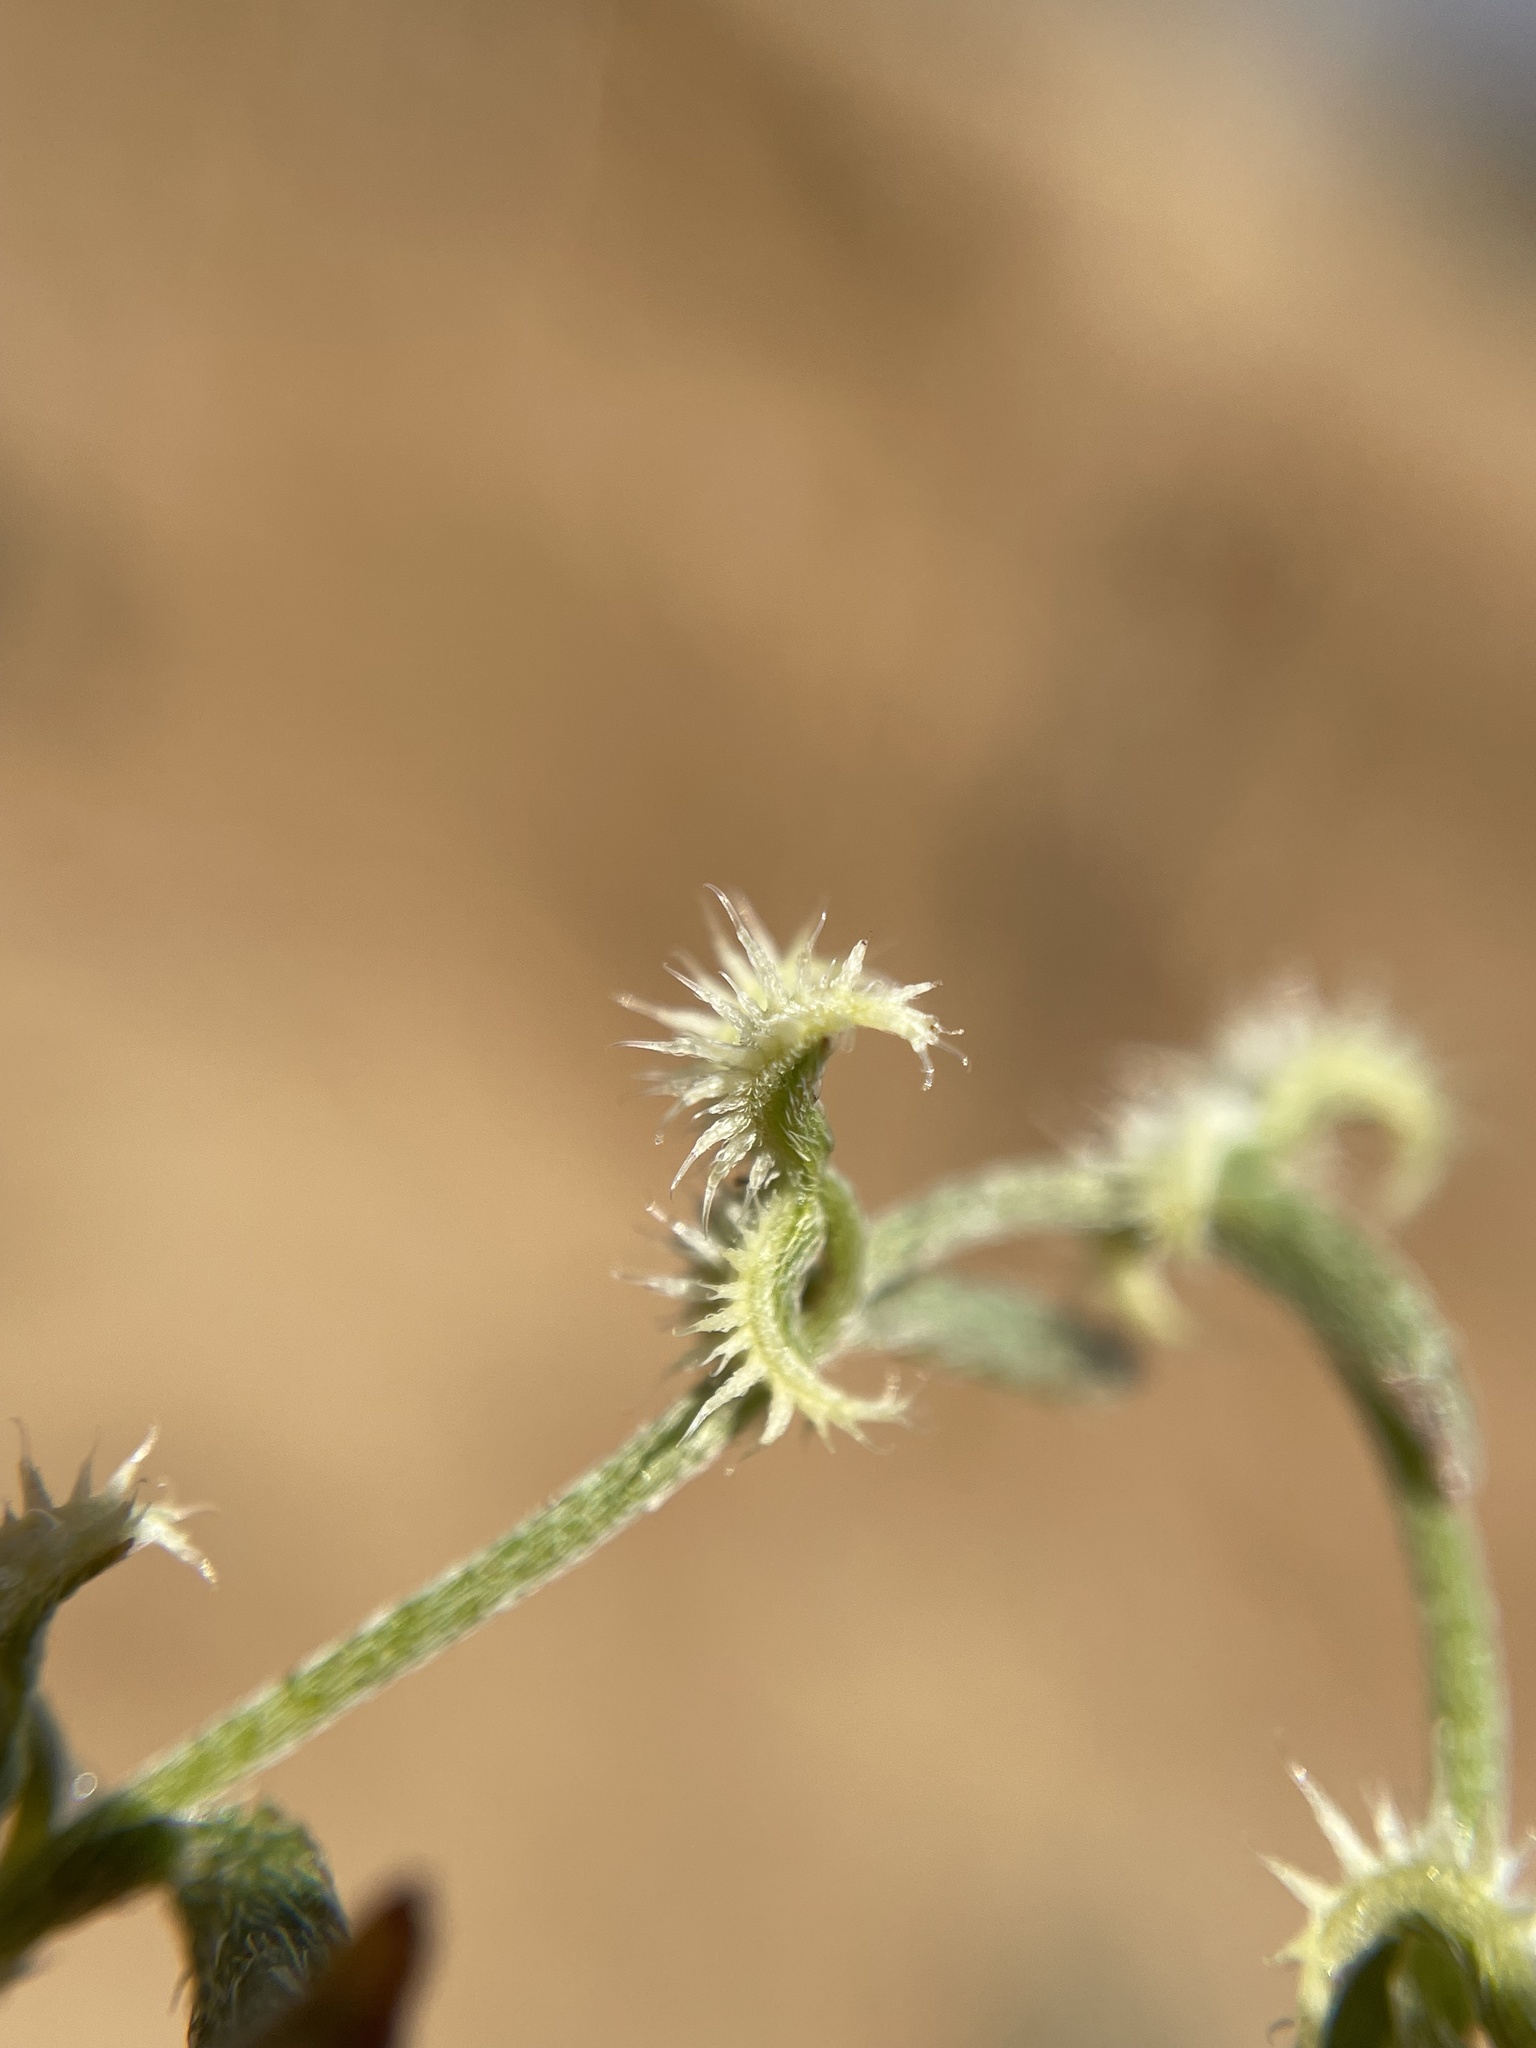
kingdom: Plantae
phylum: Tracheophyta
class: Magnoliopsida
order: Boraginales
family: Boraginaceae
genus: Pectocarya
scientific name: Pectocarya recurvata
